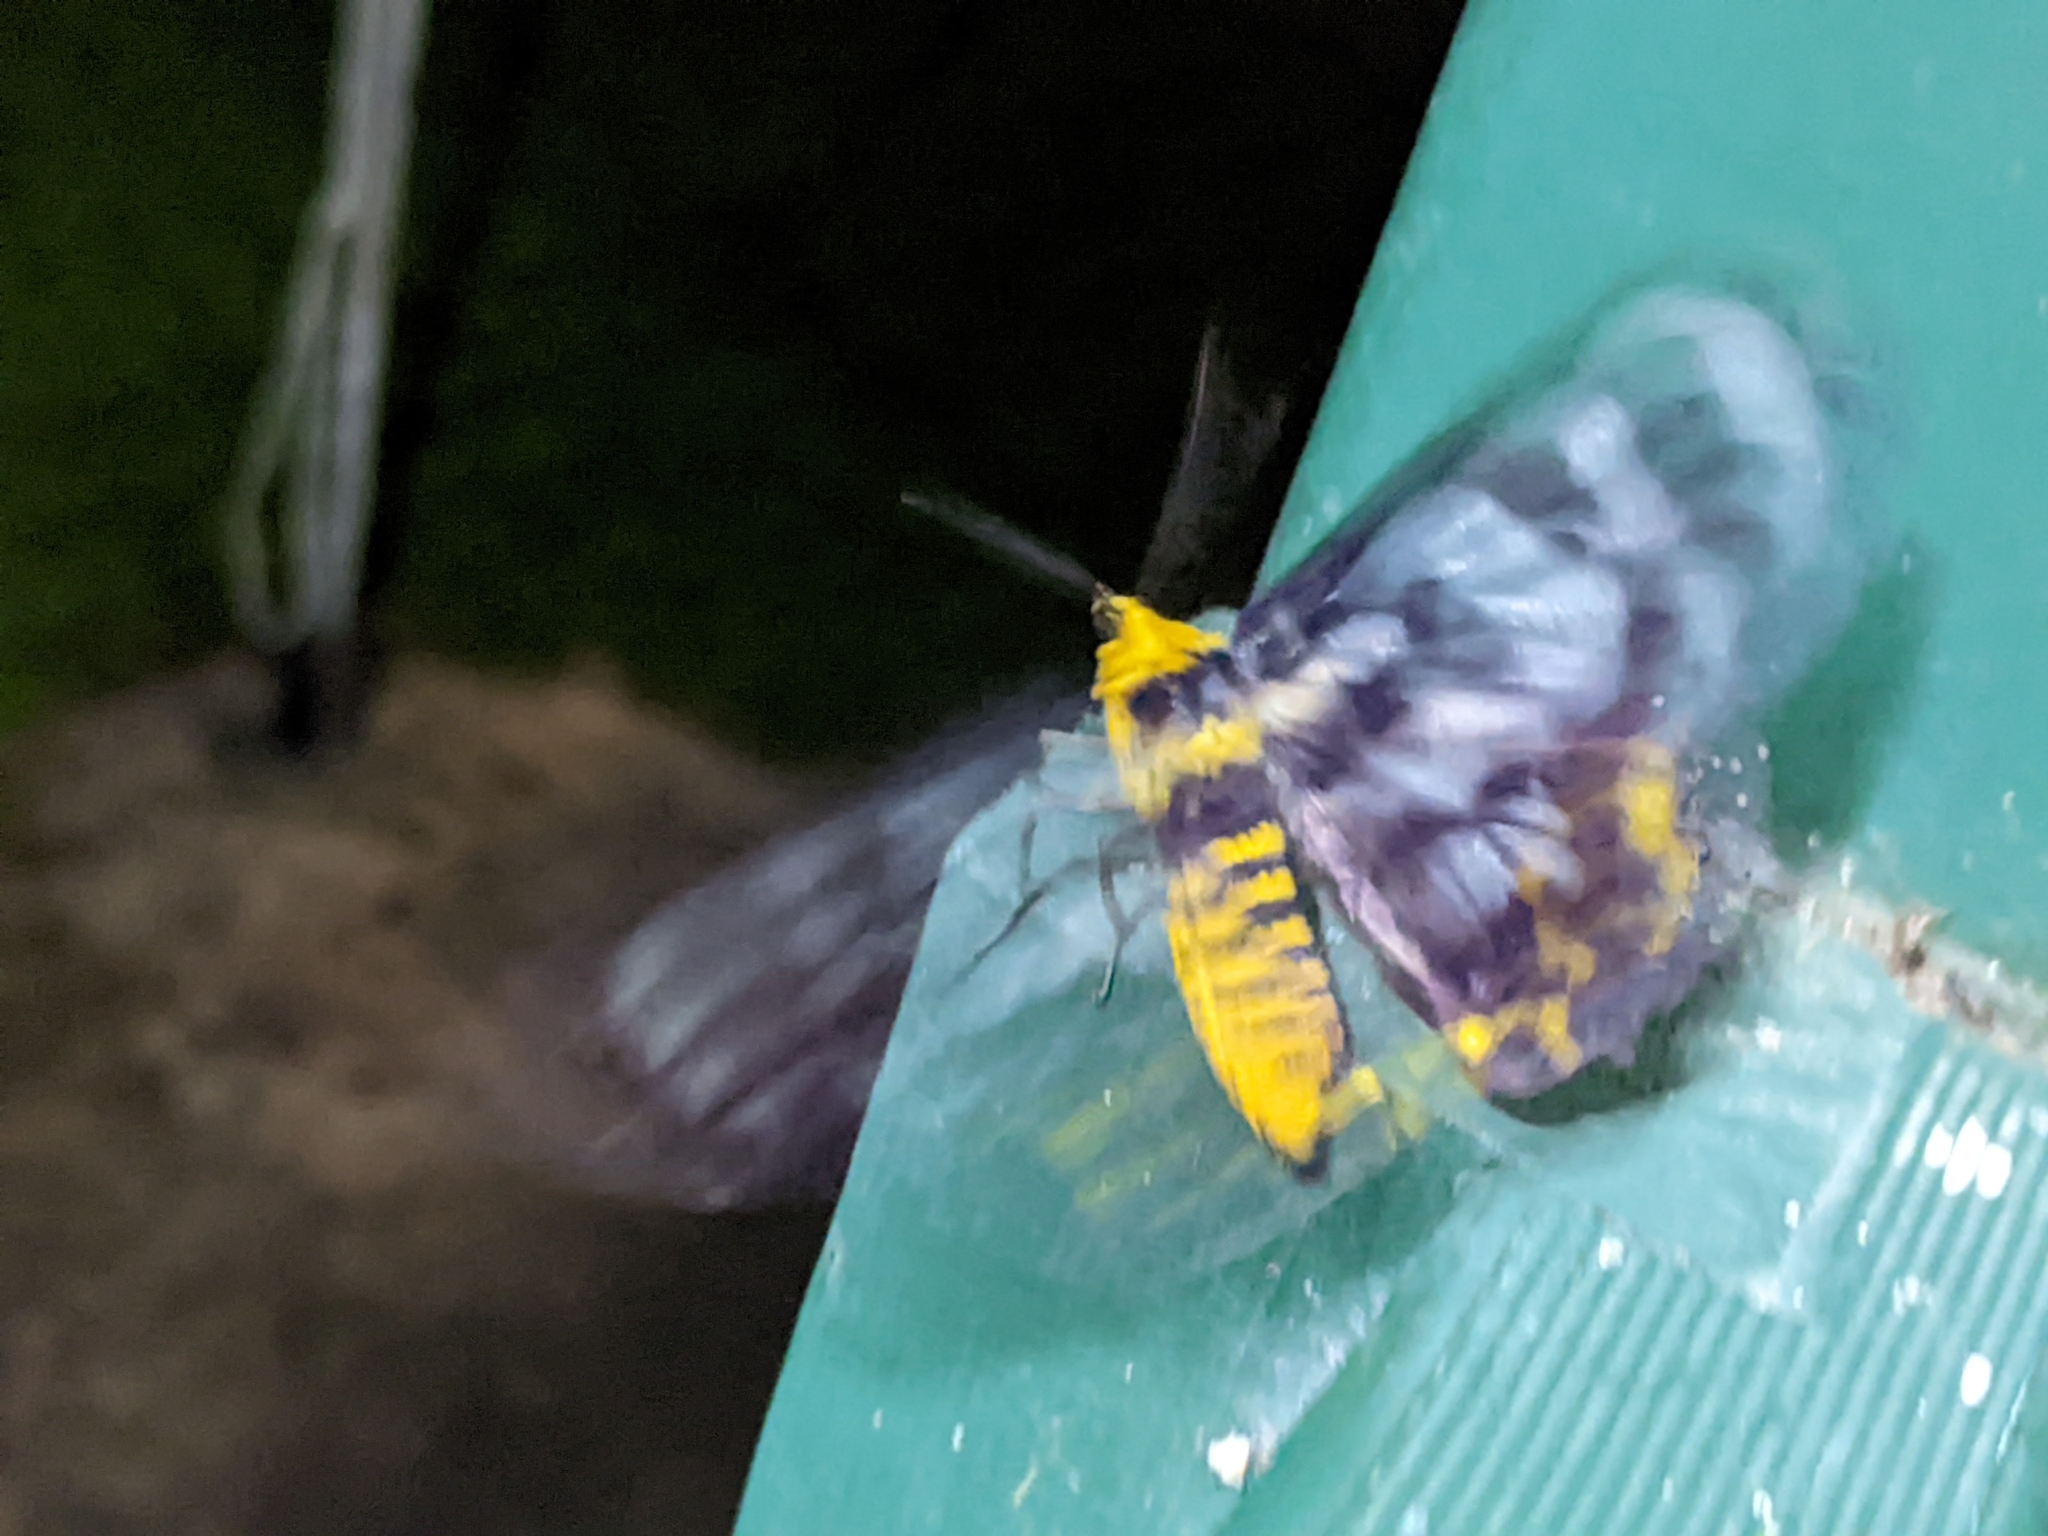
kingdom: Animalia
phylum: Arthropoda
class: Insecta
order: Lepidoptera
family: Geometridae
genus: Dysphania
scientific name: Dysphania numana
